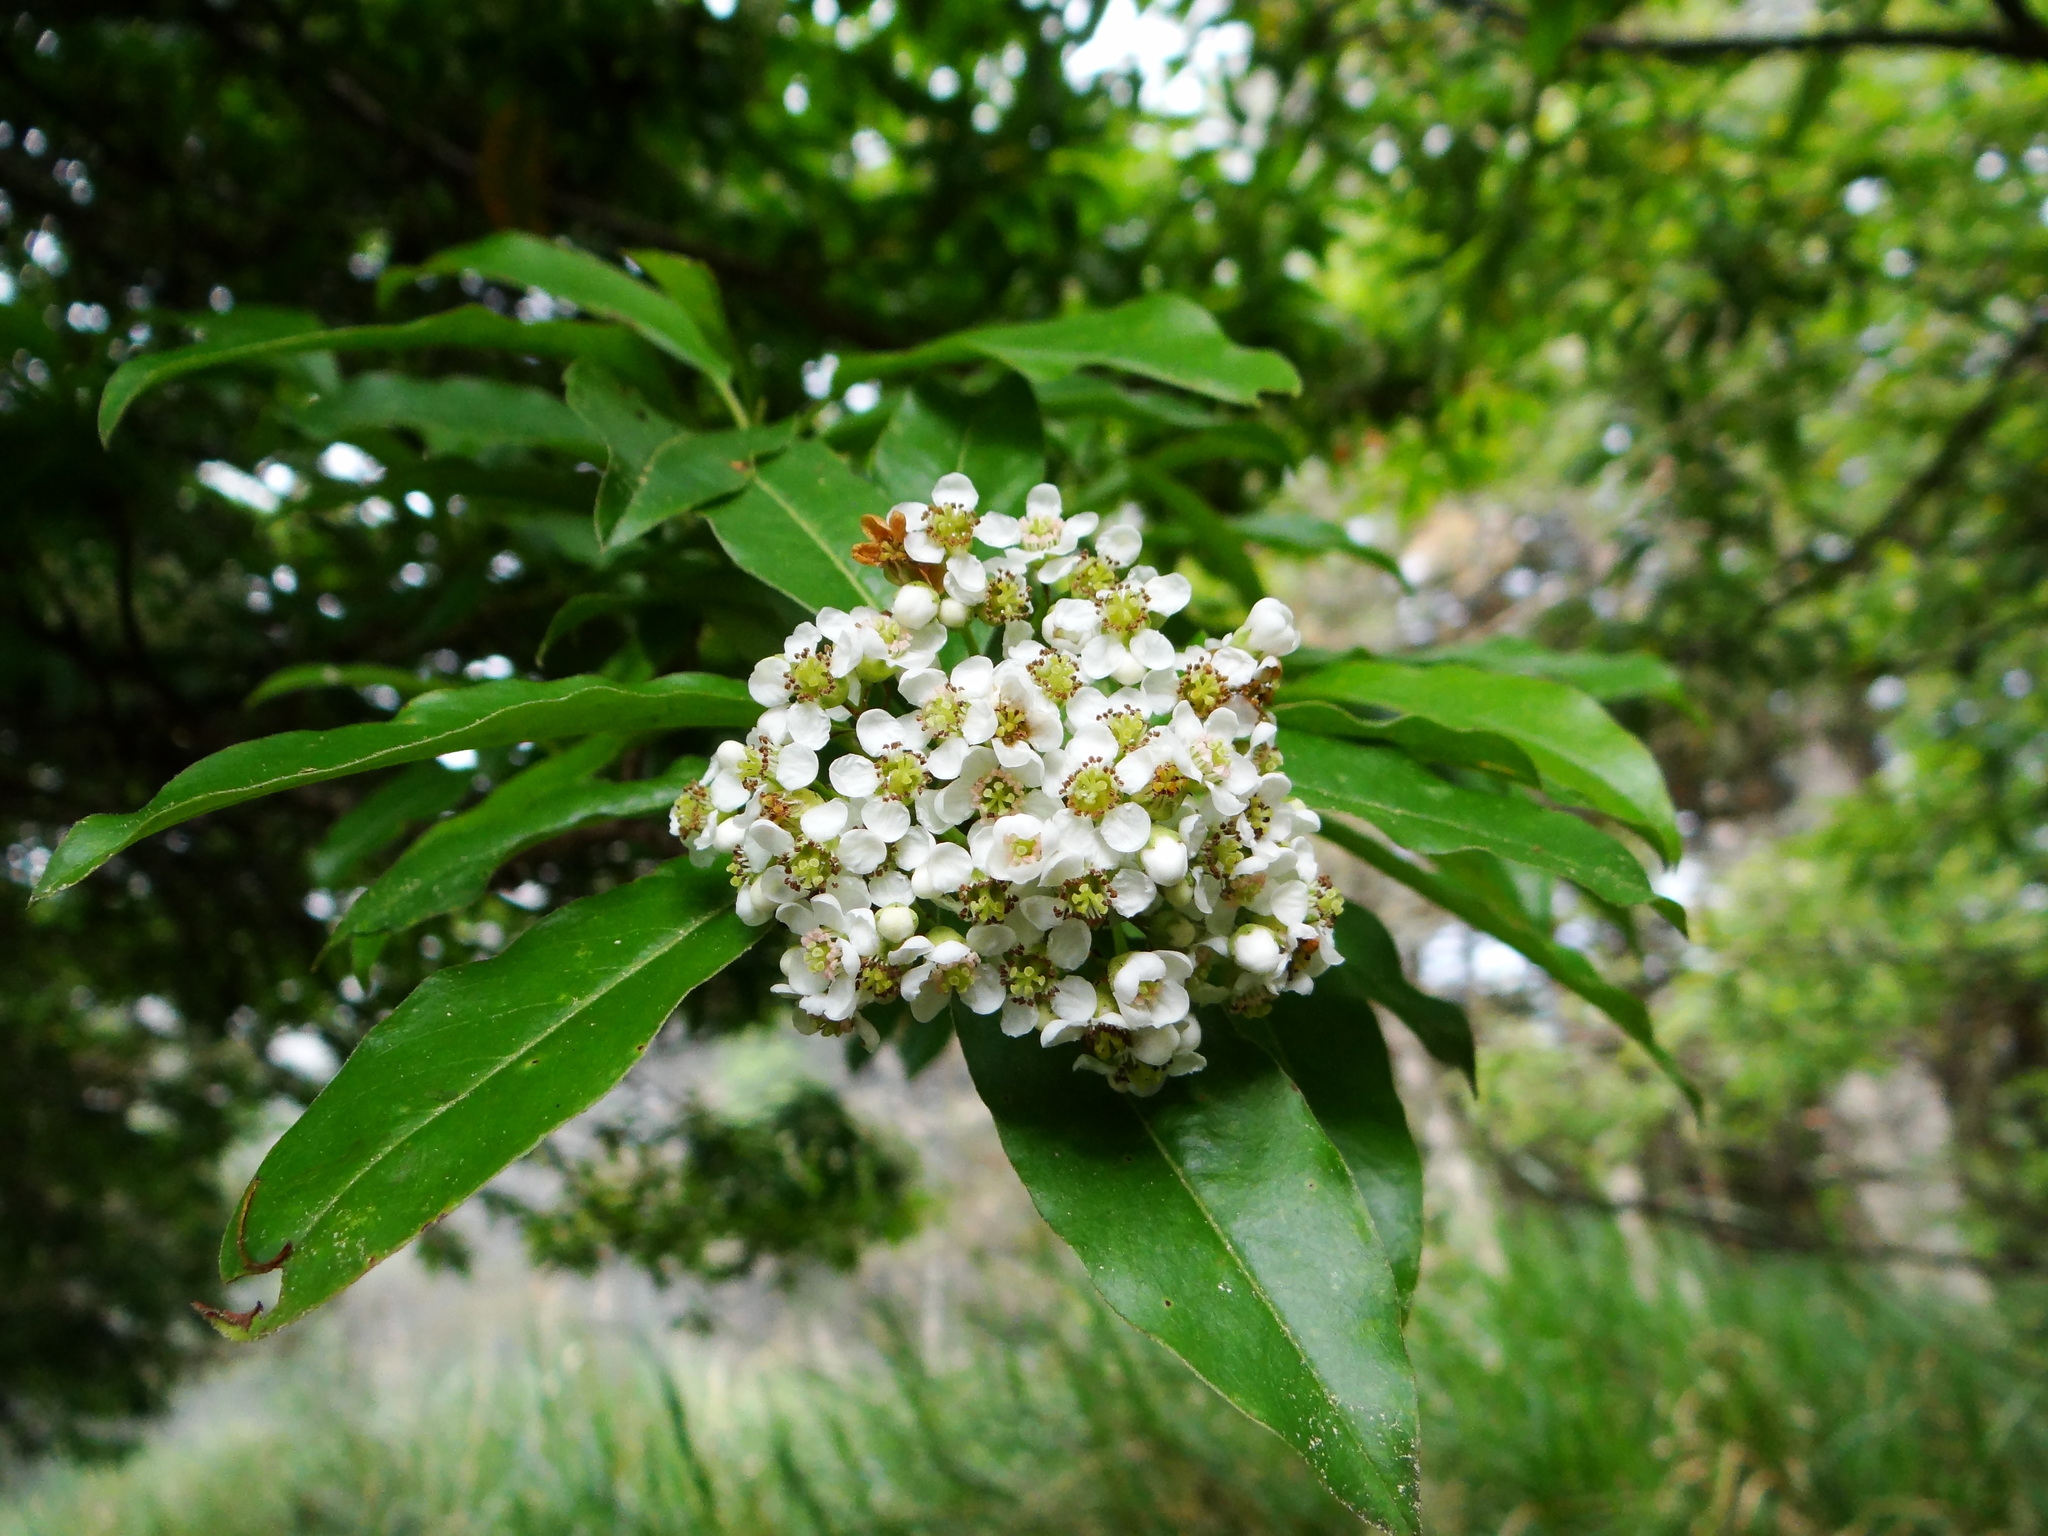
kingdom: Plantae
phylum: Tracheophyta
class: Magnoliopsida
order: Rosales
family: Rosaceae
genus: Stranvaesia
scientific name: Stranvaesia davidiana
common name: Chinese photinia
